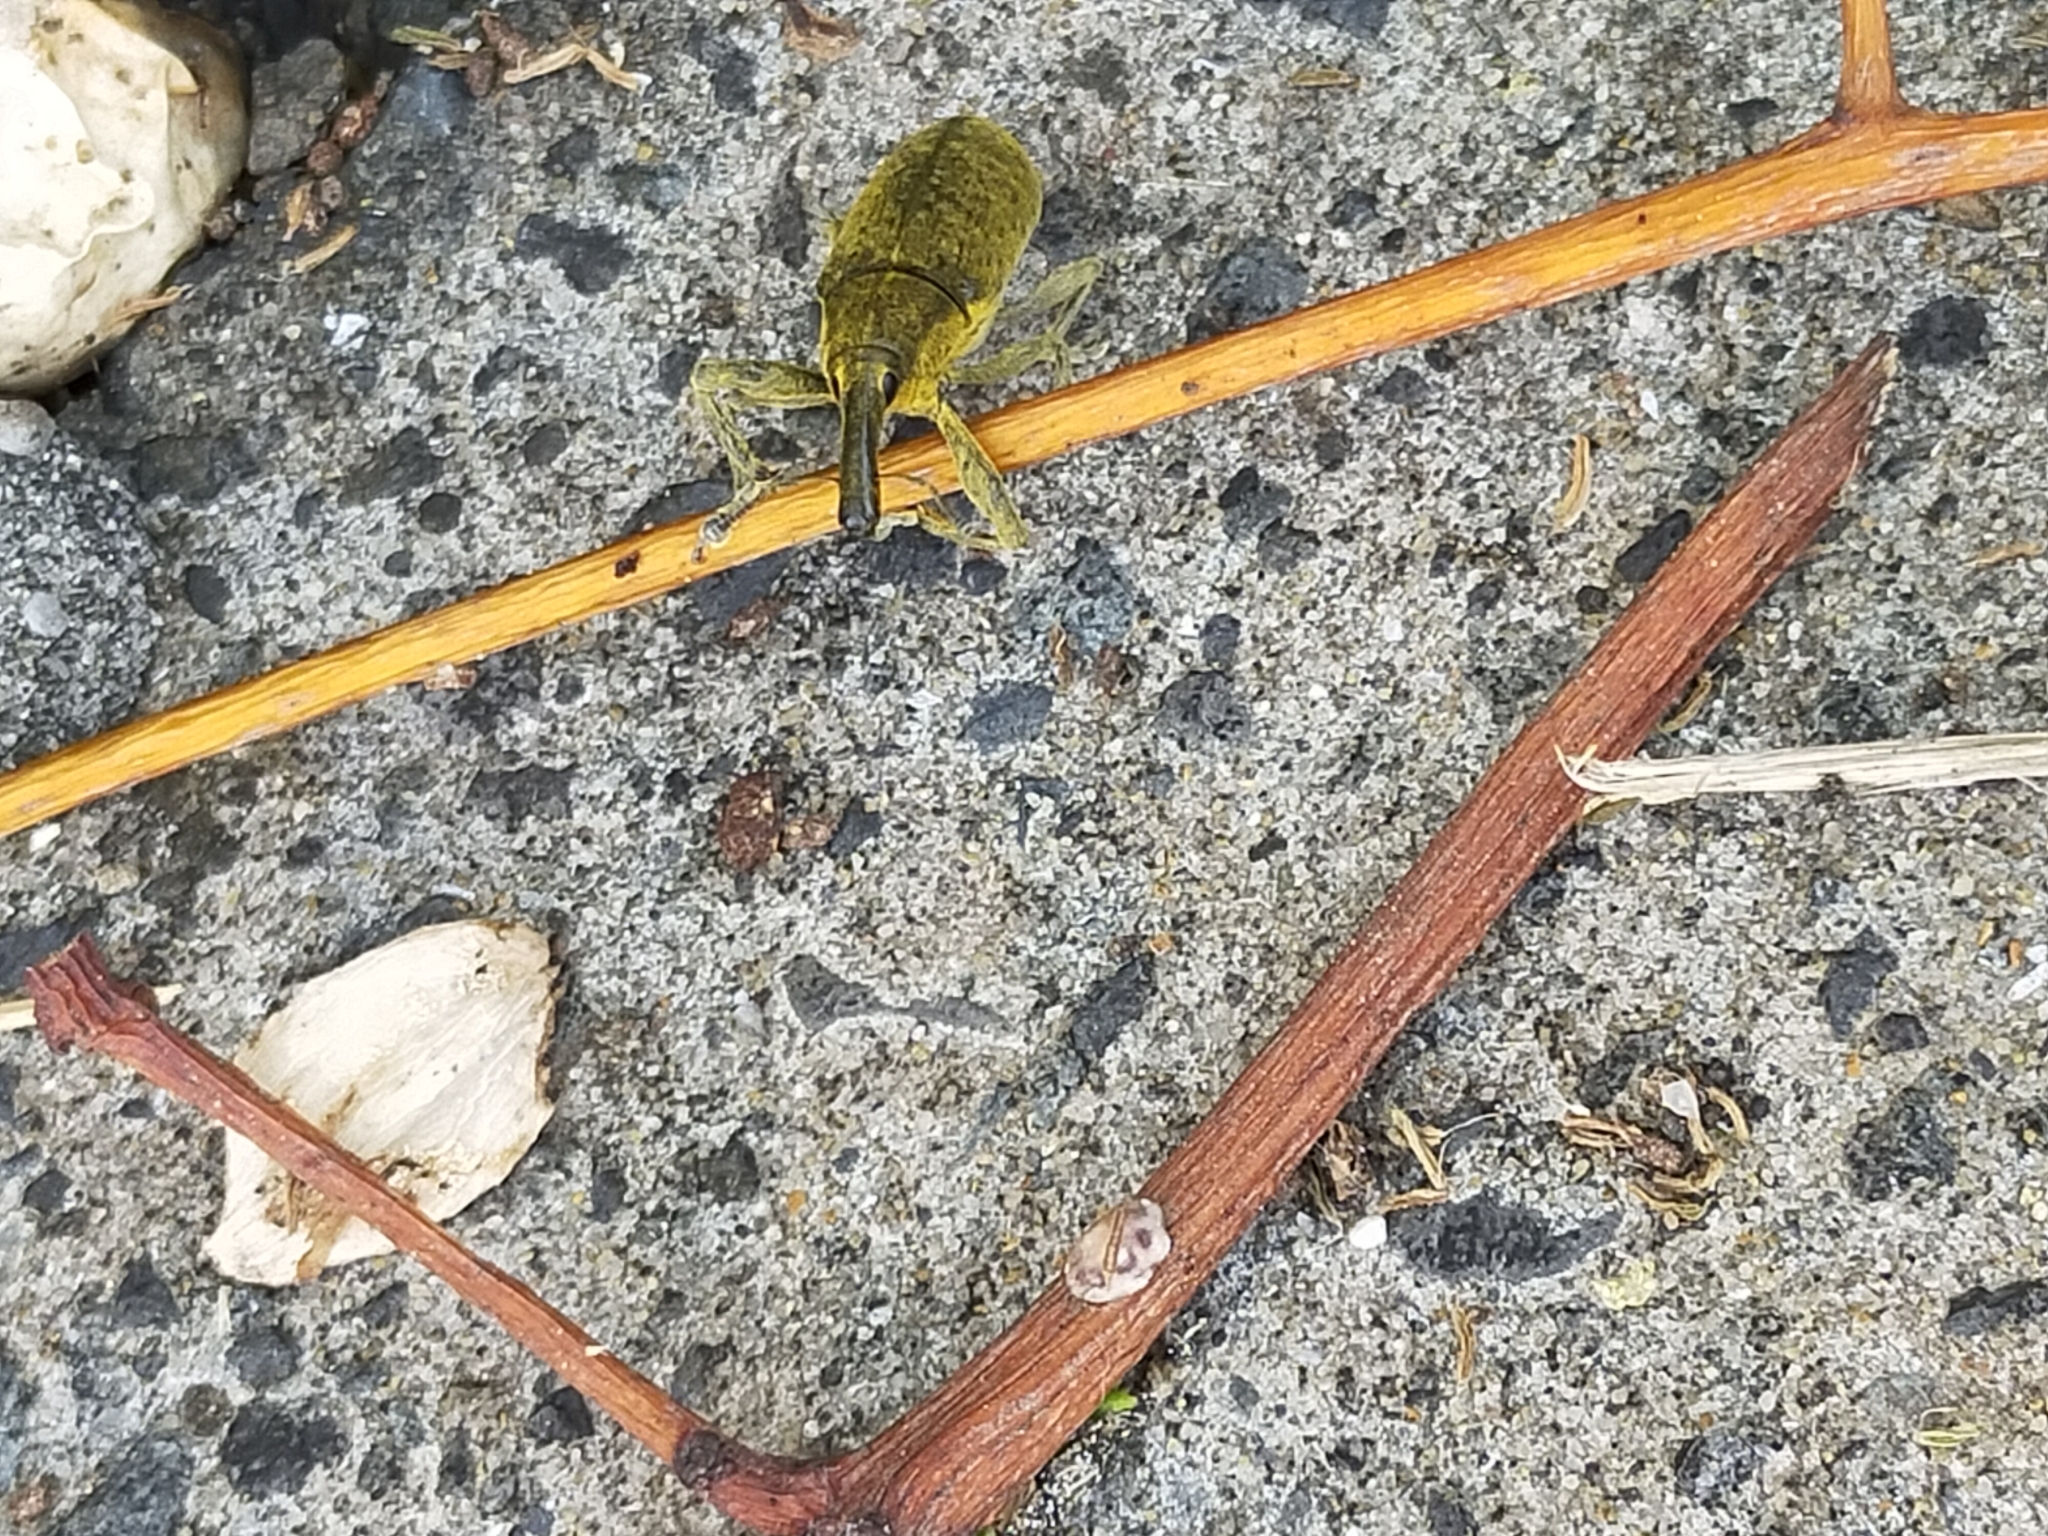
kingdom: Animalia
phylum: Arthropoda
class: Insecta
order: Coleoptera
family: Curculionidae
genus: Lixus
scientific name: Lixus pulverulentus
